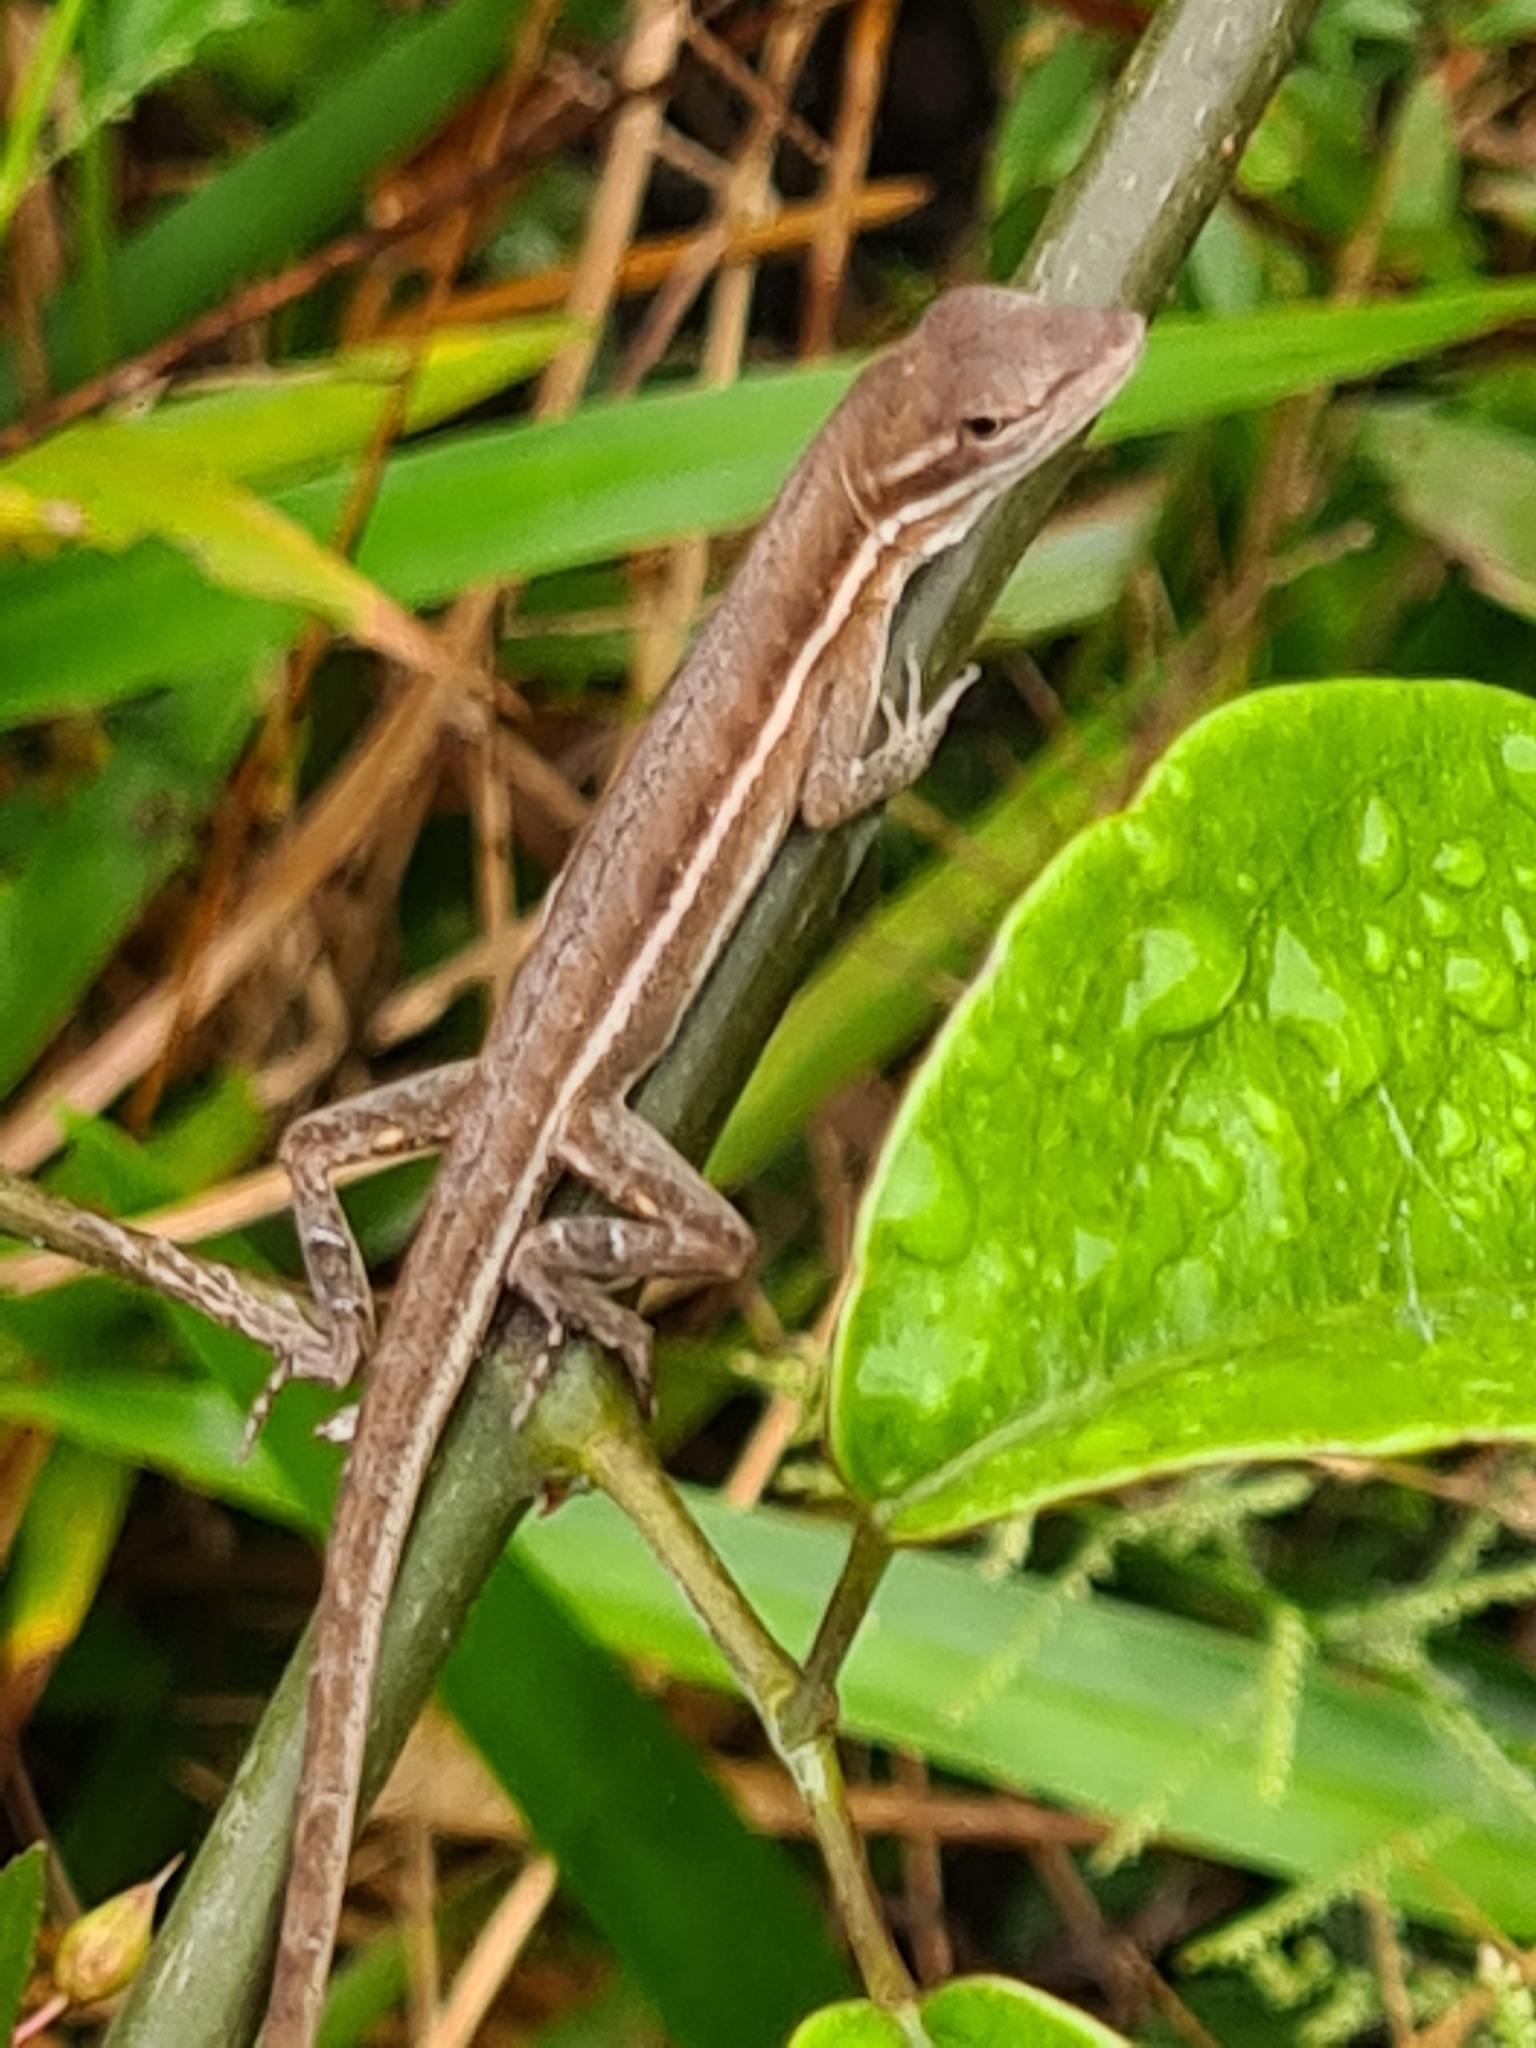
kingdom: Animalia
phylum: Chordata
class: Squamata
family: Dactyloidae
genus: Anolis
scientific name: Anolis auratus
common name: Grass anole
